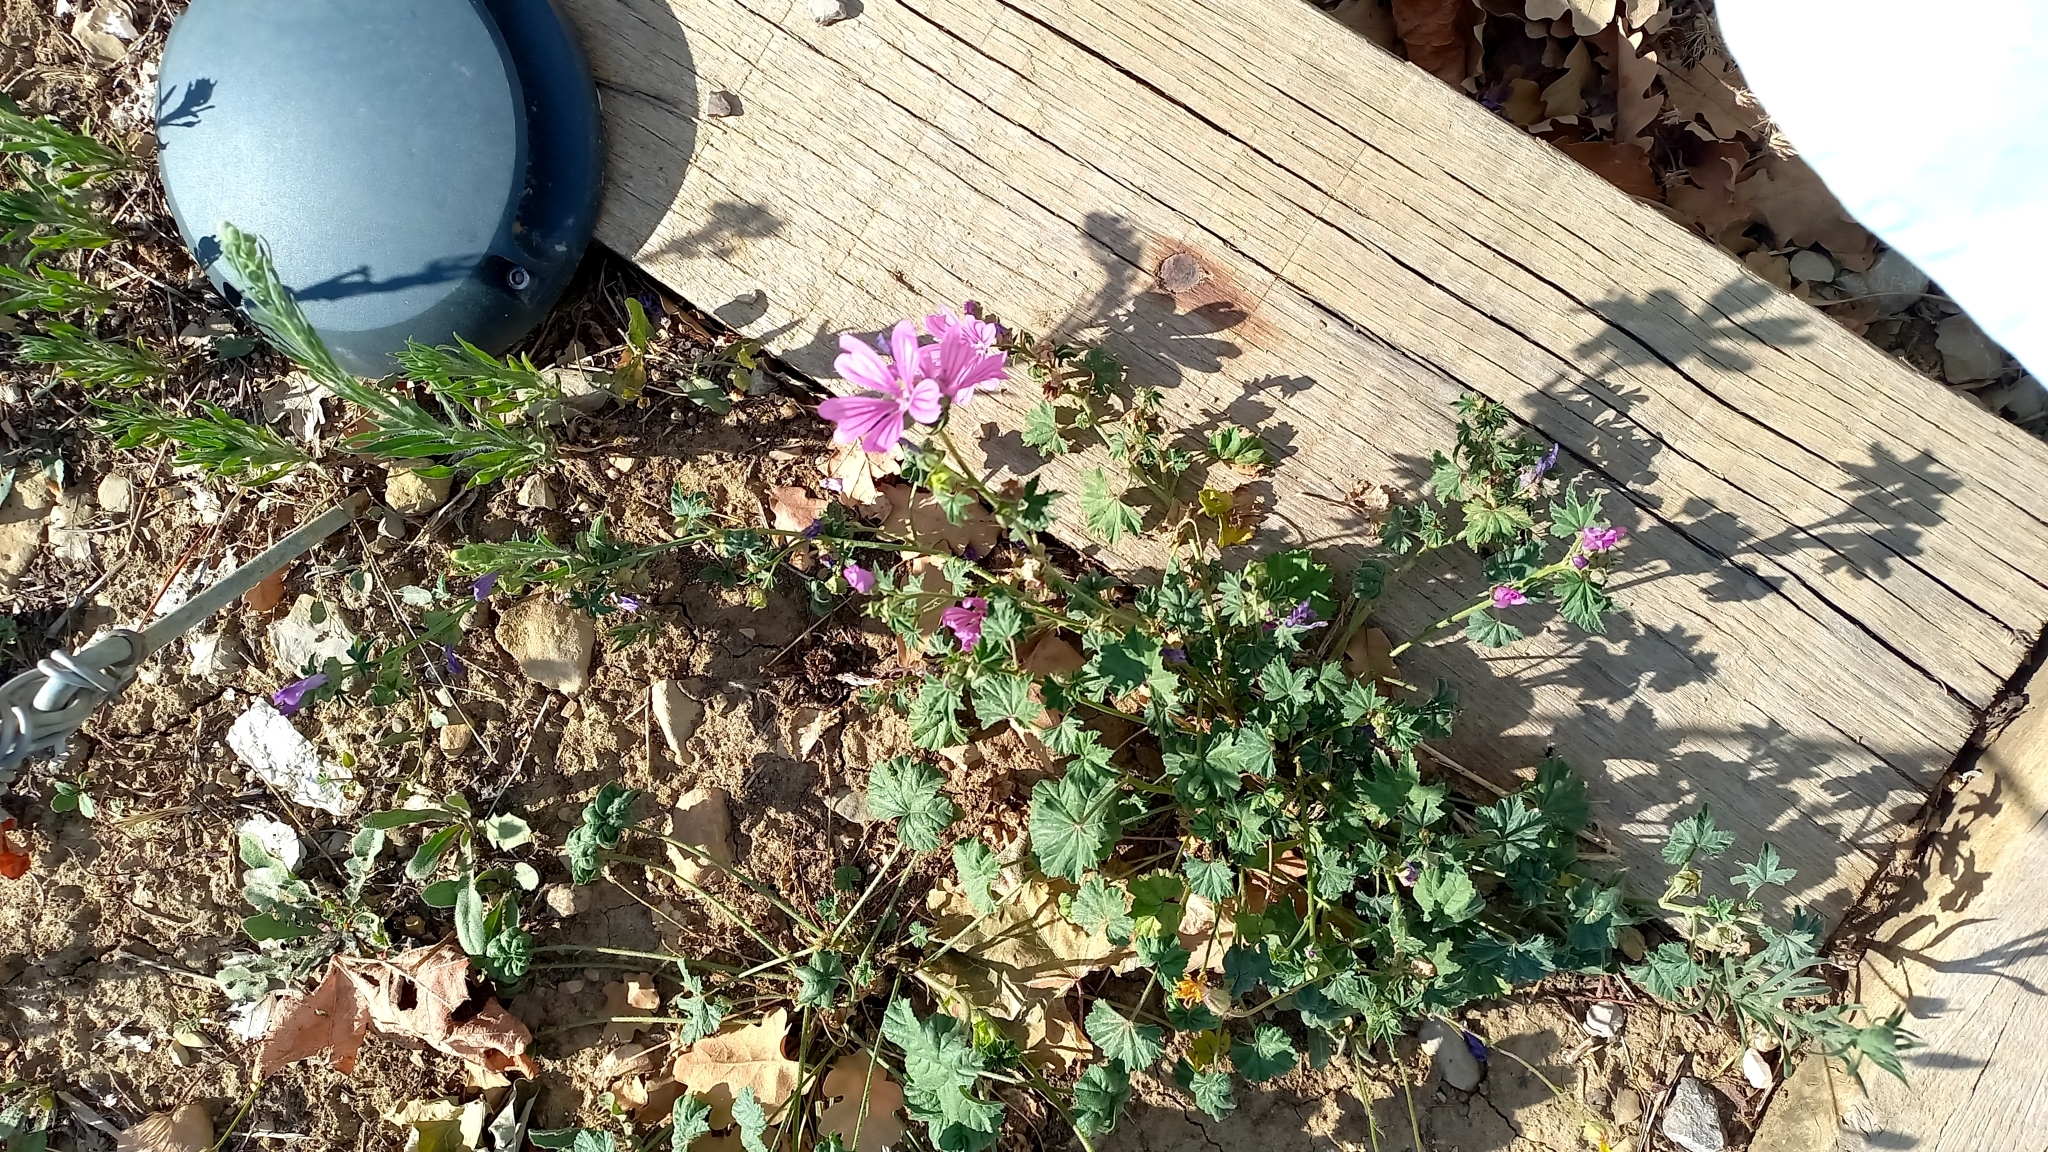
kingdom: Plantae
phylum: Tracheophyta
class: Magnoliopsida
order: Malvales
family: Malvaceae
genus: Malva
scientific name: Malva sylvestris
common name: Common mallow
